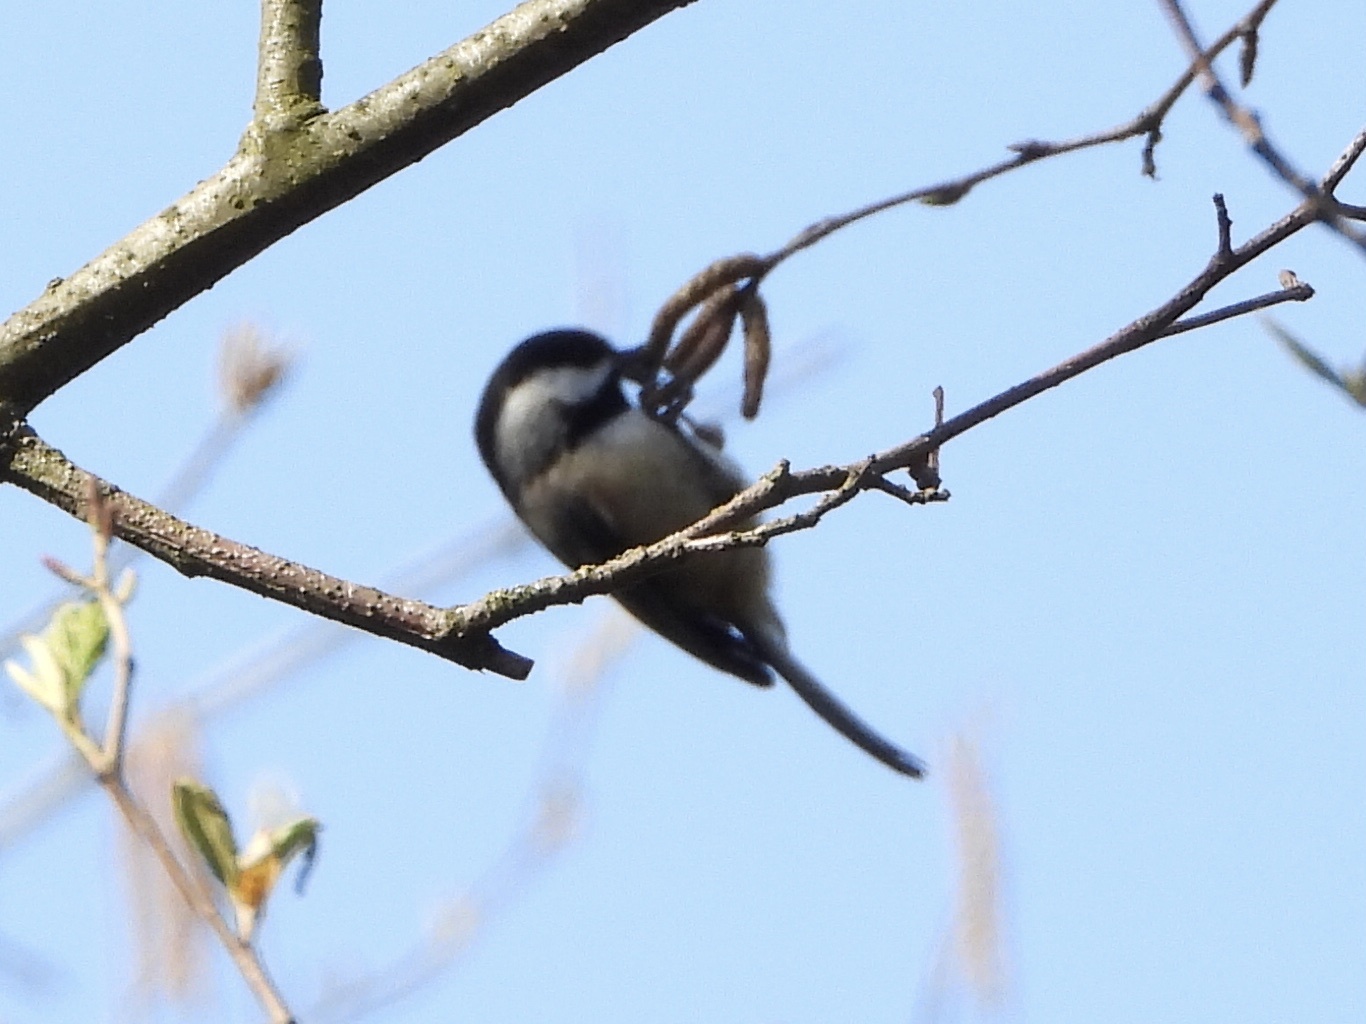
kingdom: Animalia
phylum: Chordata
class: Aves
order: Passeriformes
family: Paridae
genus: Poecile
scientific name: Poecile atricapillus
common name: Black-capped chickadee
